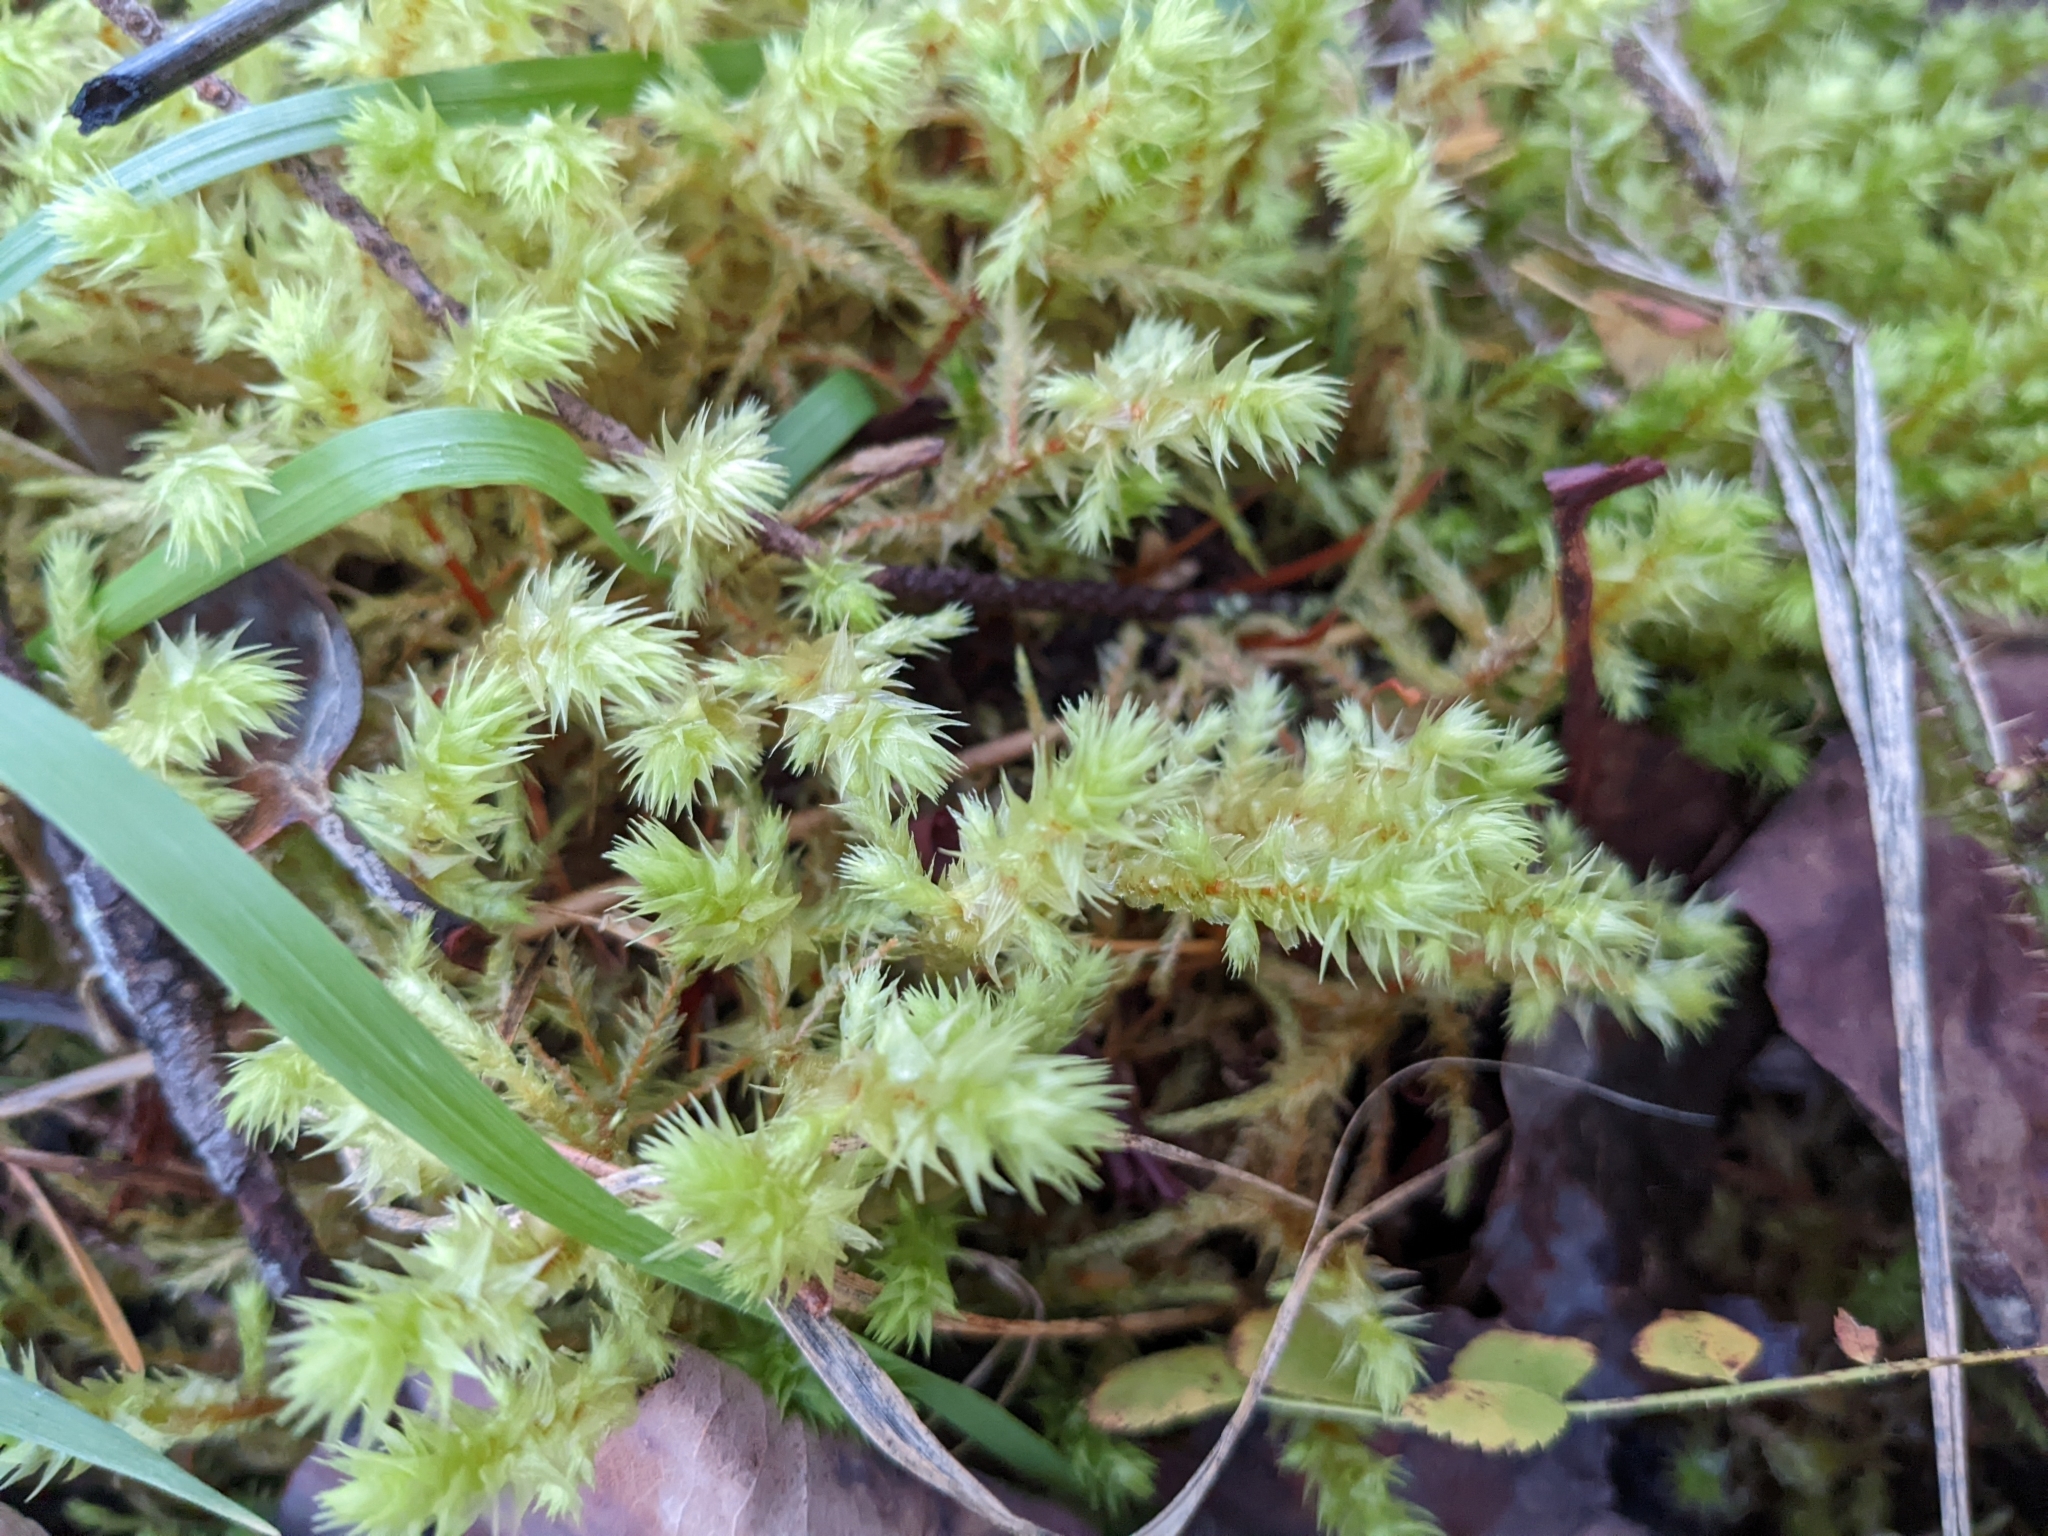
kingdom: Plantae
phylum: Bryophyta
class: Bryopsida
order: Hypnales
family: Hylocomiaceae
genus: Hylocomiadelphus
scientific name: Hylocomiadelphus triquetrus
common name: Rough goose neck moss
